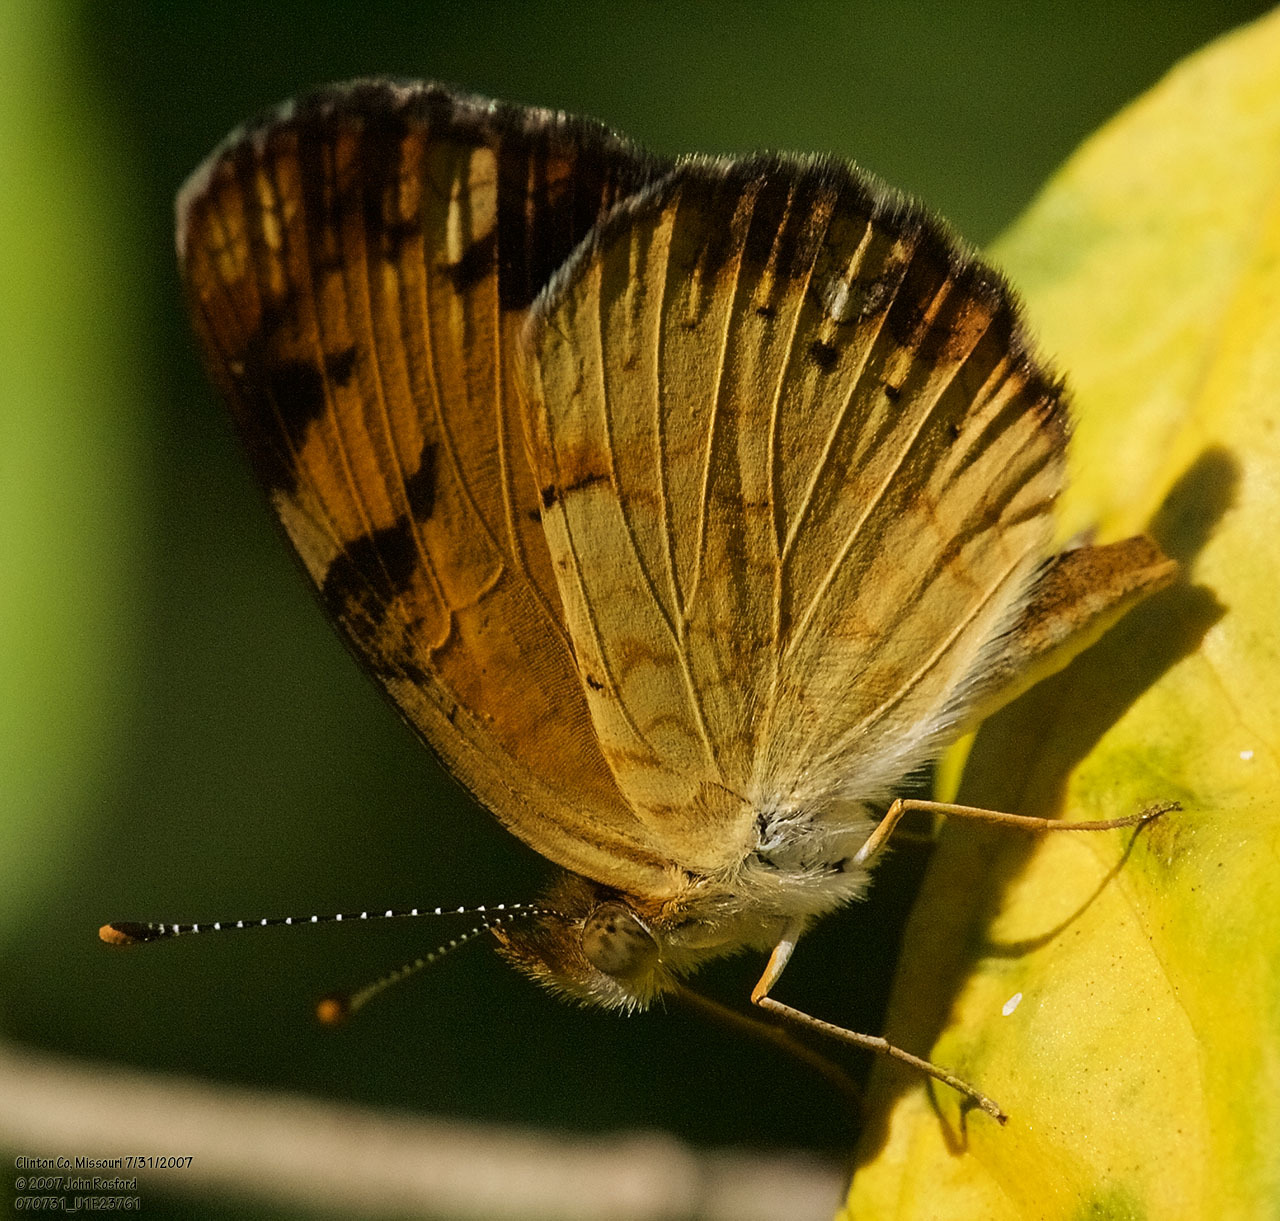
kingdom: Animalia
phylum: Arthropoda
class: Insecta
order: Lepidoptera
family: Nymphalidae
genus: Phyciodes
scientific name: Phyciodes tharos
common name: Pearl crescent
